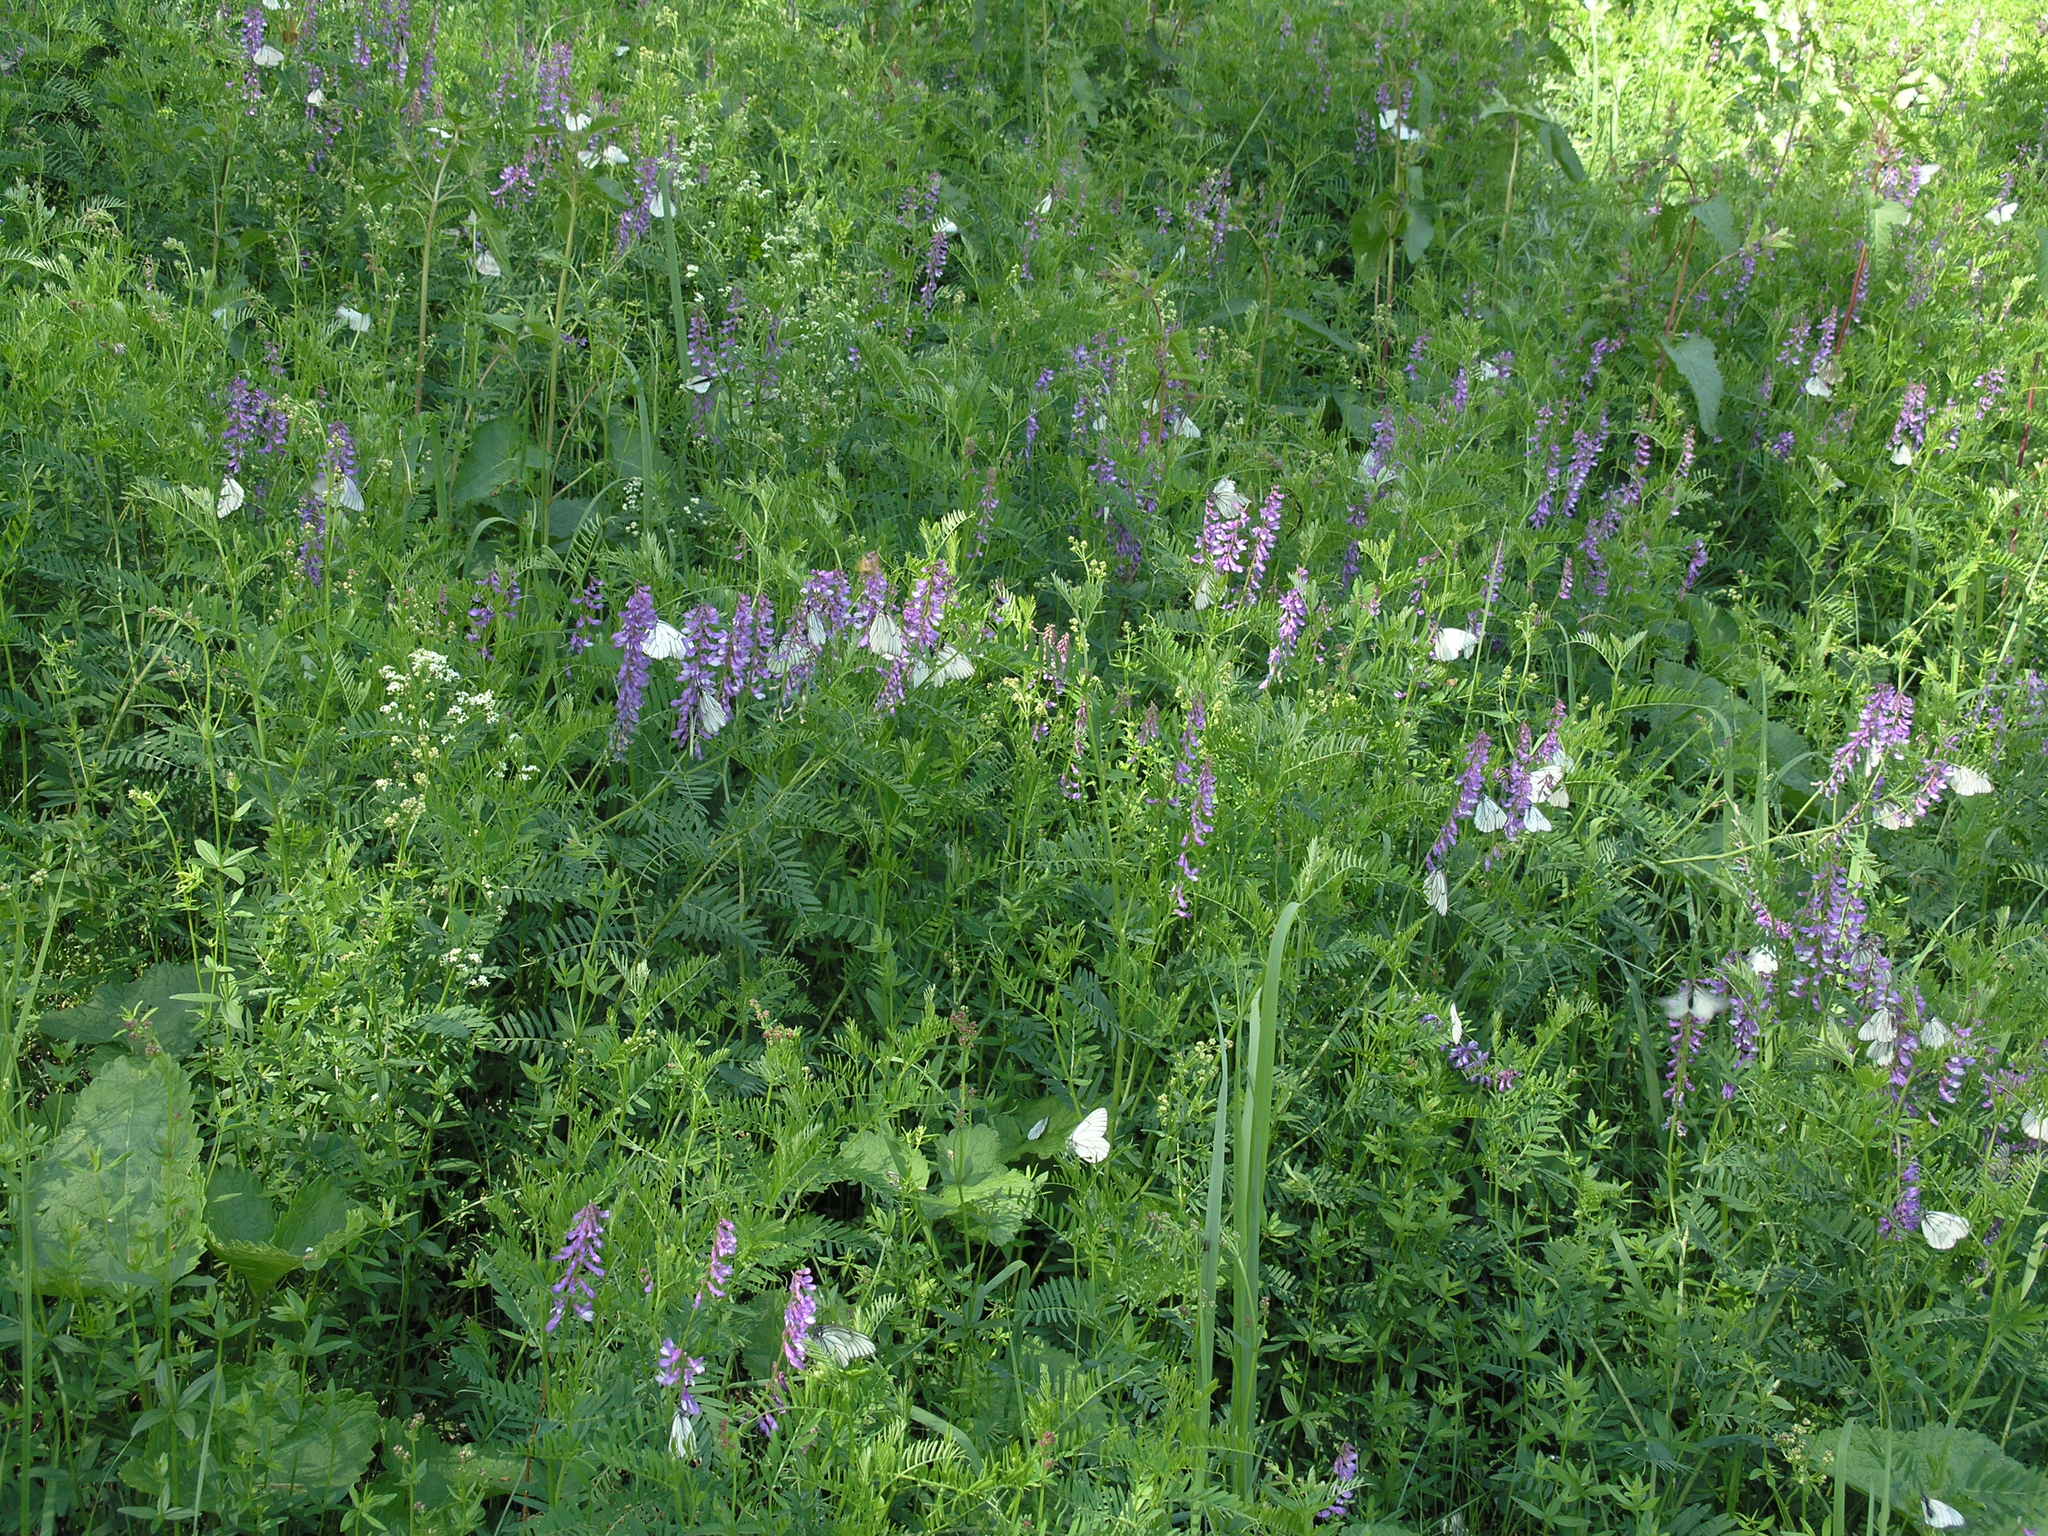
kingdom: Plantae
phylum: Tracheophyta
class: Magnoliopsida
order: Fabales
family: Fabaceae
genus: Vicia
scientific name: Vicia tenuifolia
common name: Fine-leaved vetch
